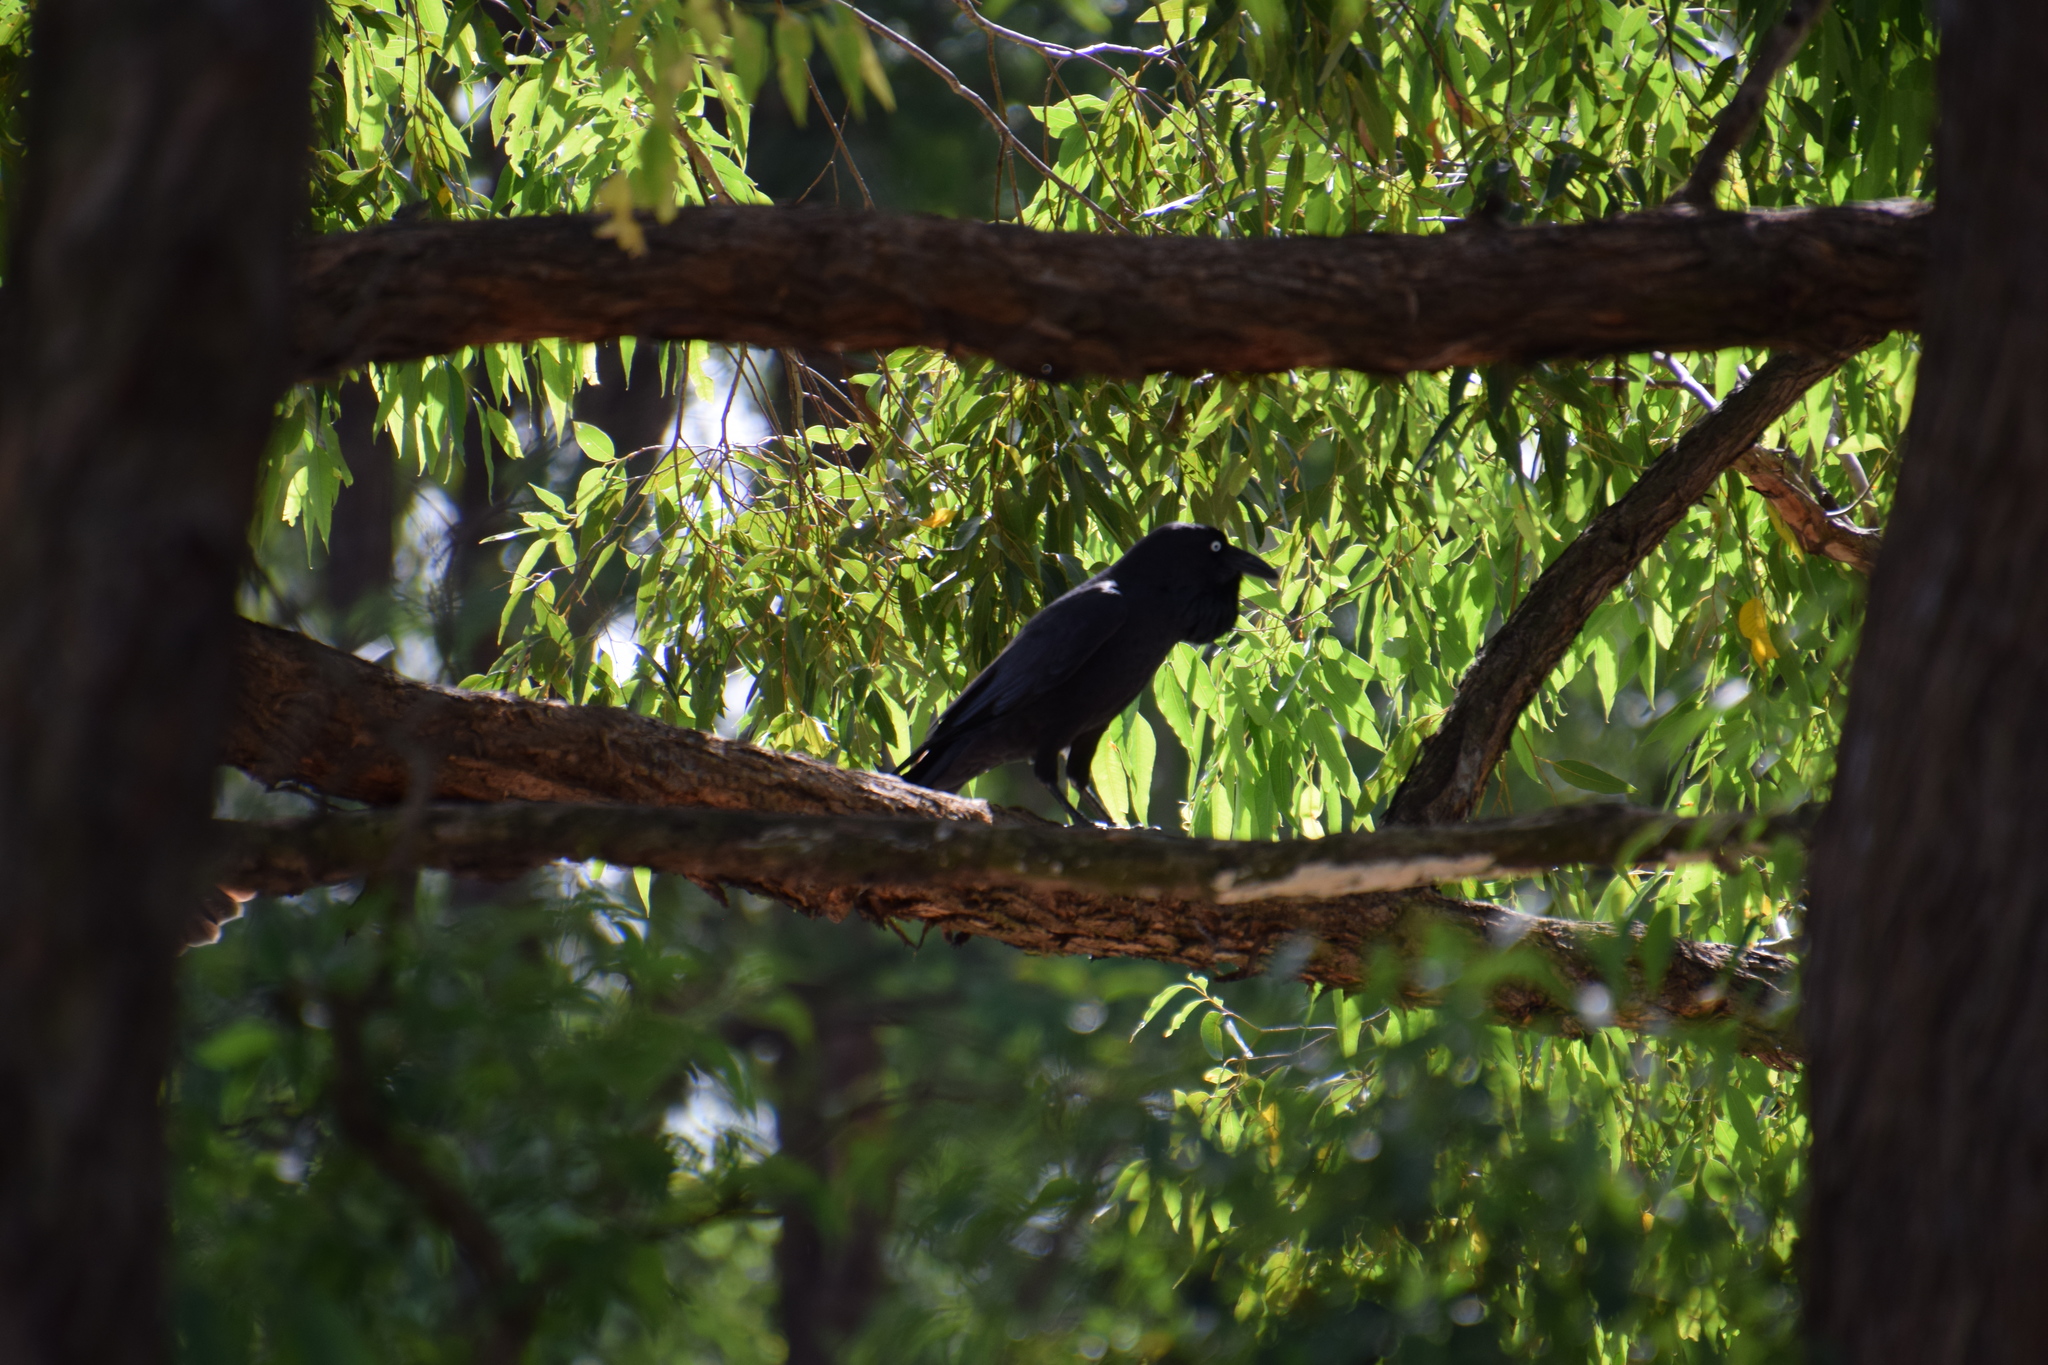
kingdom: Animalia
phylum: Chordata
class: Aves
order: Passeriformes
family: Corvidae
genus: Corvus
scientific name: Corvus coronoides
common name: Australian raven
